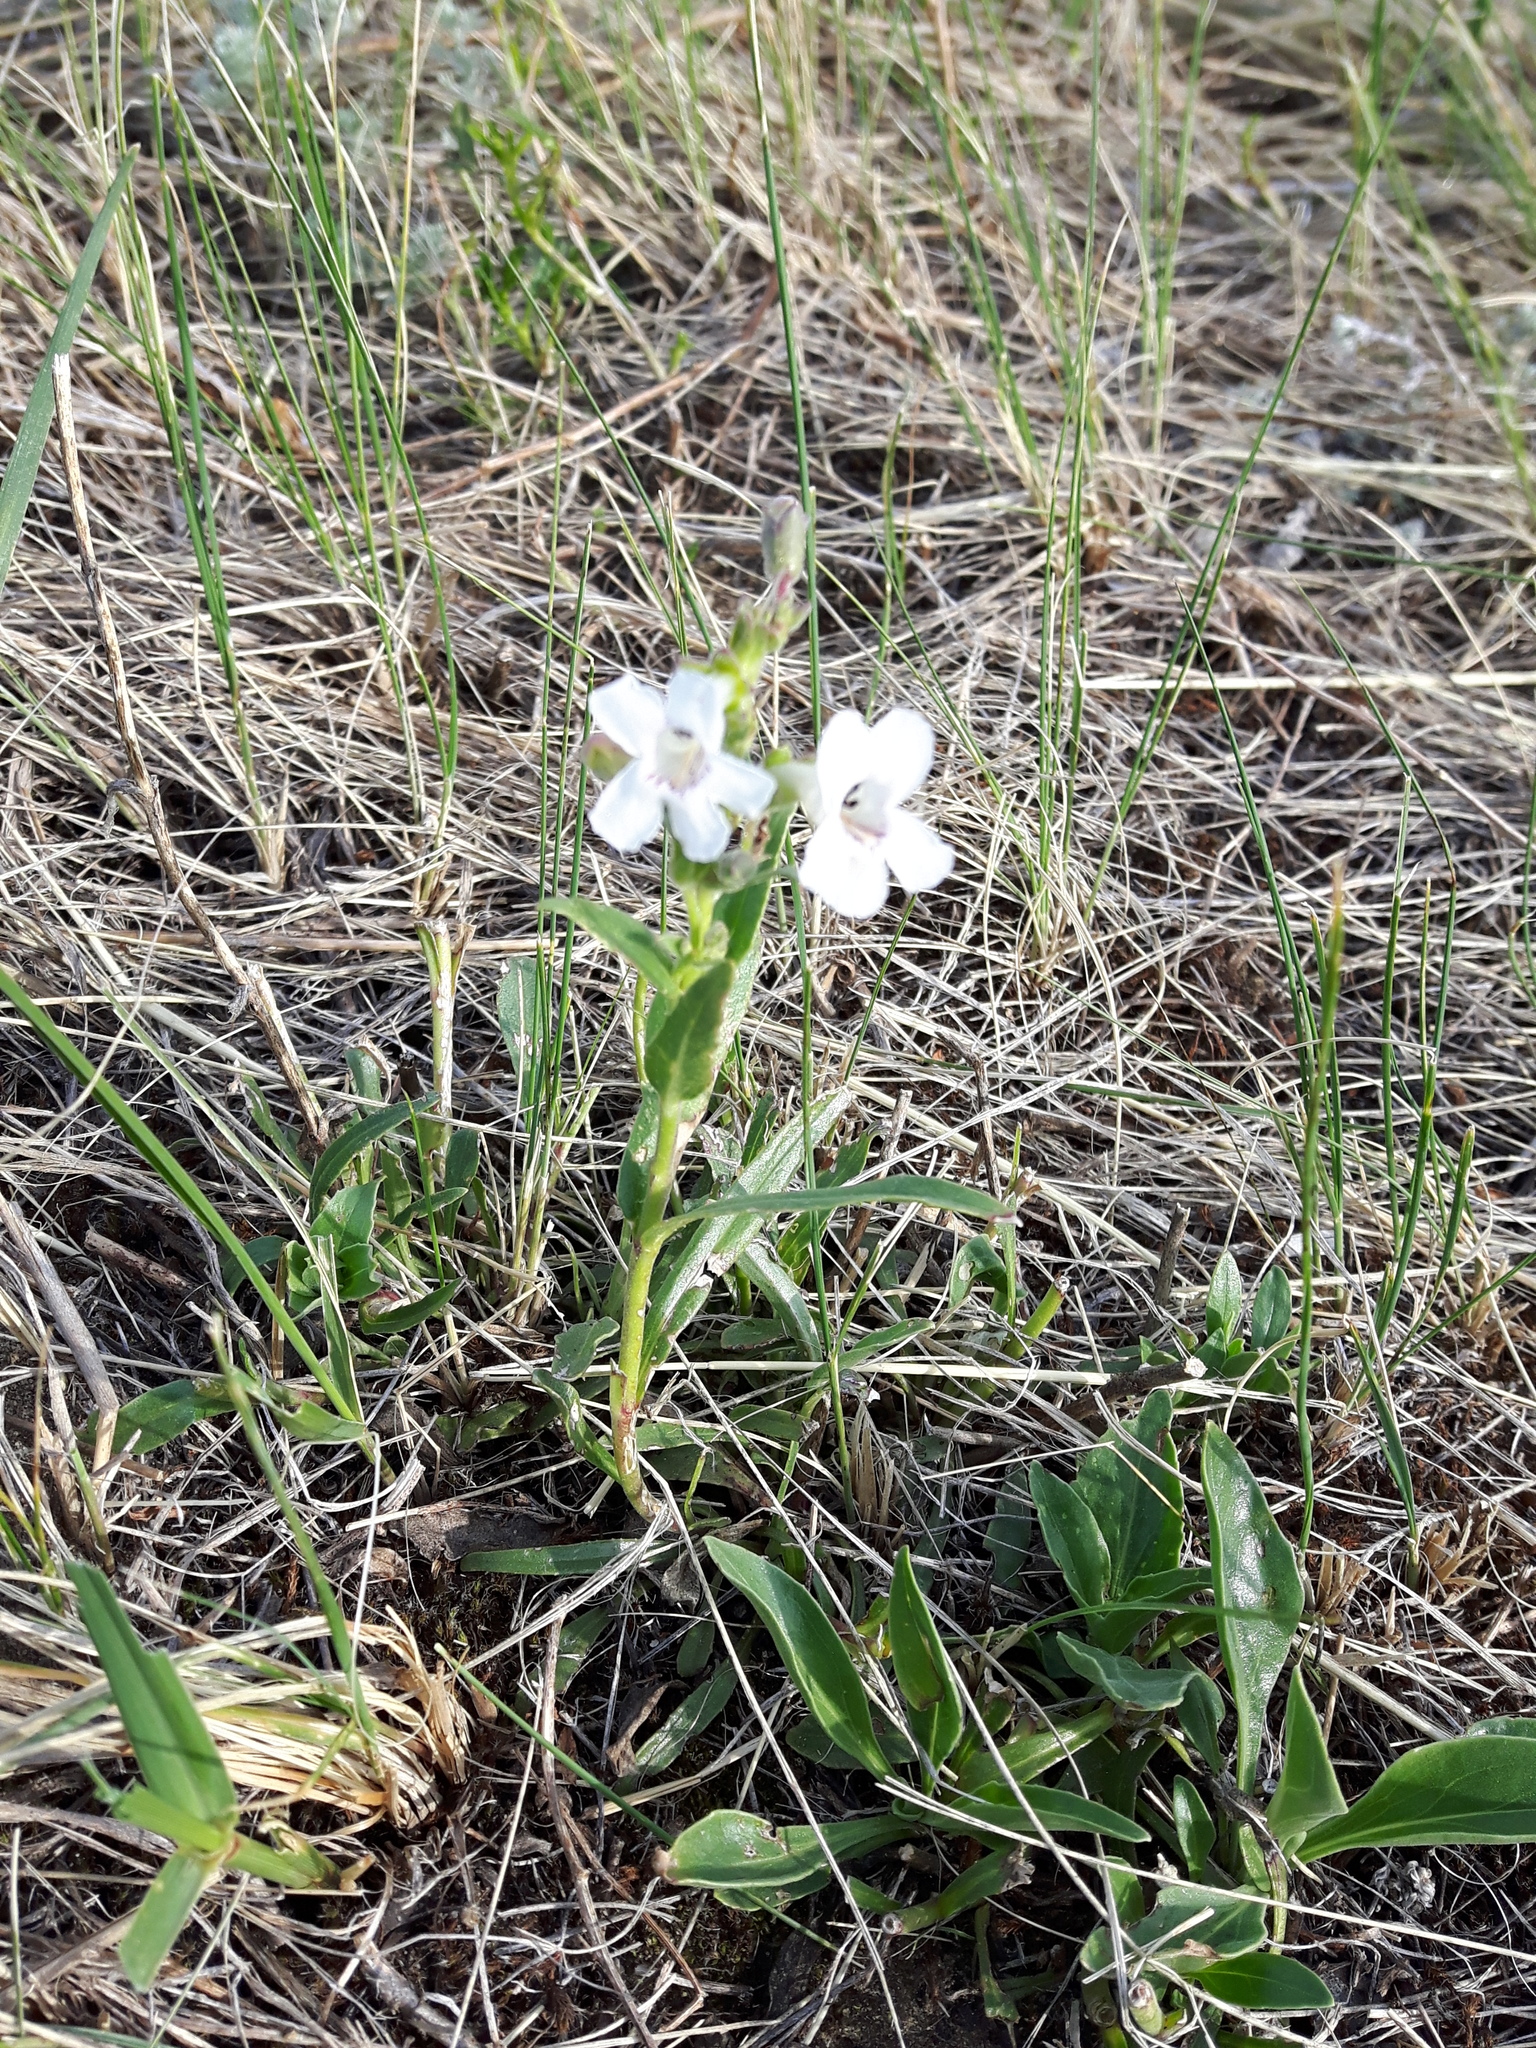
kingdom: Plantae
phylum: Tracheophyta
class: Magnoliopsida
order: Lamiales
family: Plantaginaceae
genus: Penstemon
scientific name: Penstemon albidus
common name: White beardtongue
